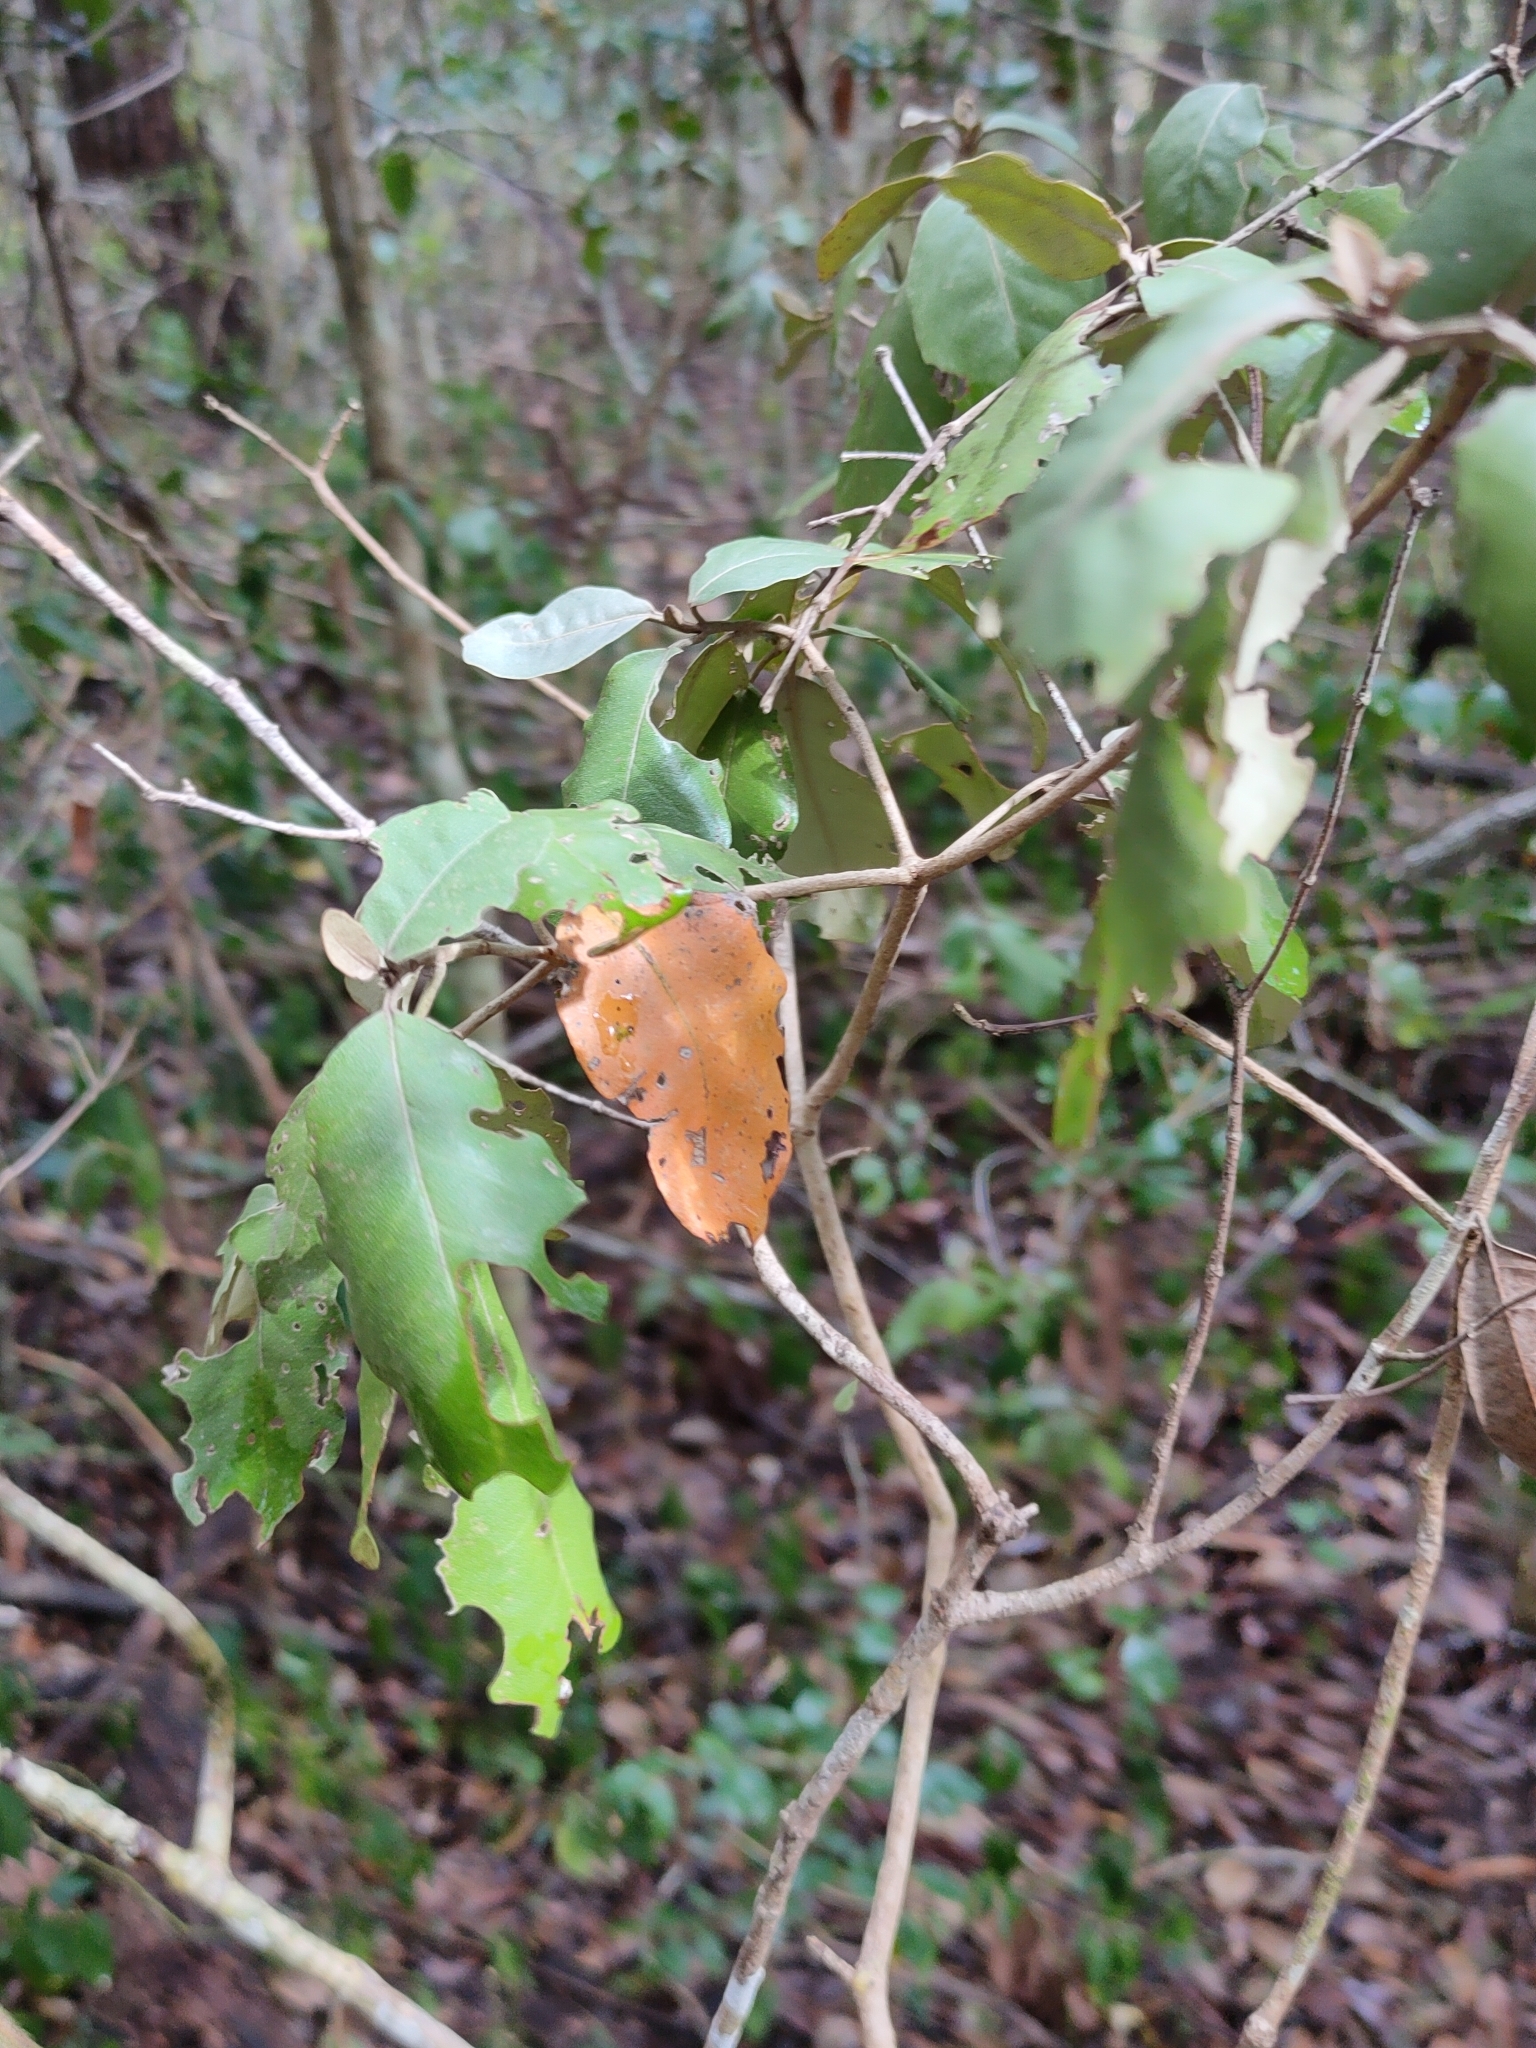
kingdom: Plantae
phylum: Tracheophyta
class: Magnoliopsida
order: Malpighiales
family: Euphorbiaceae
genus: Croton
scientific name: Croton insularis
